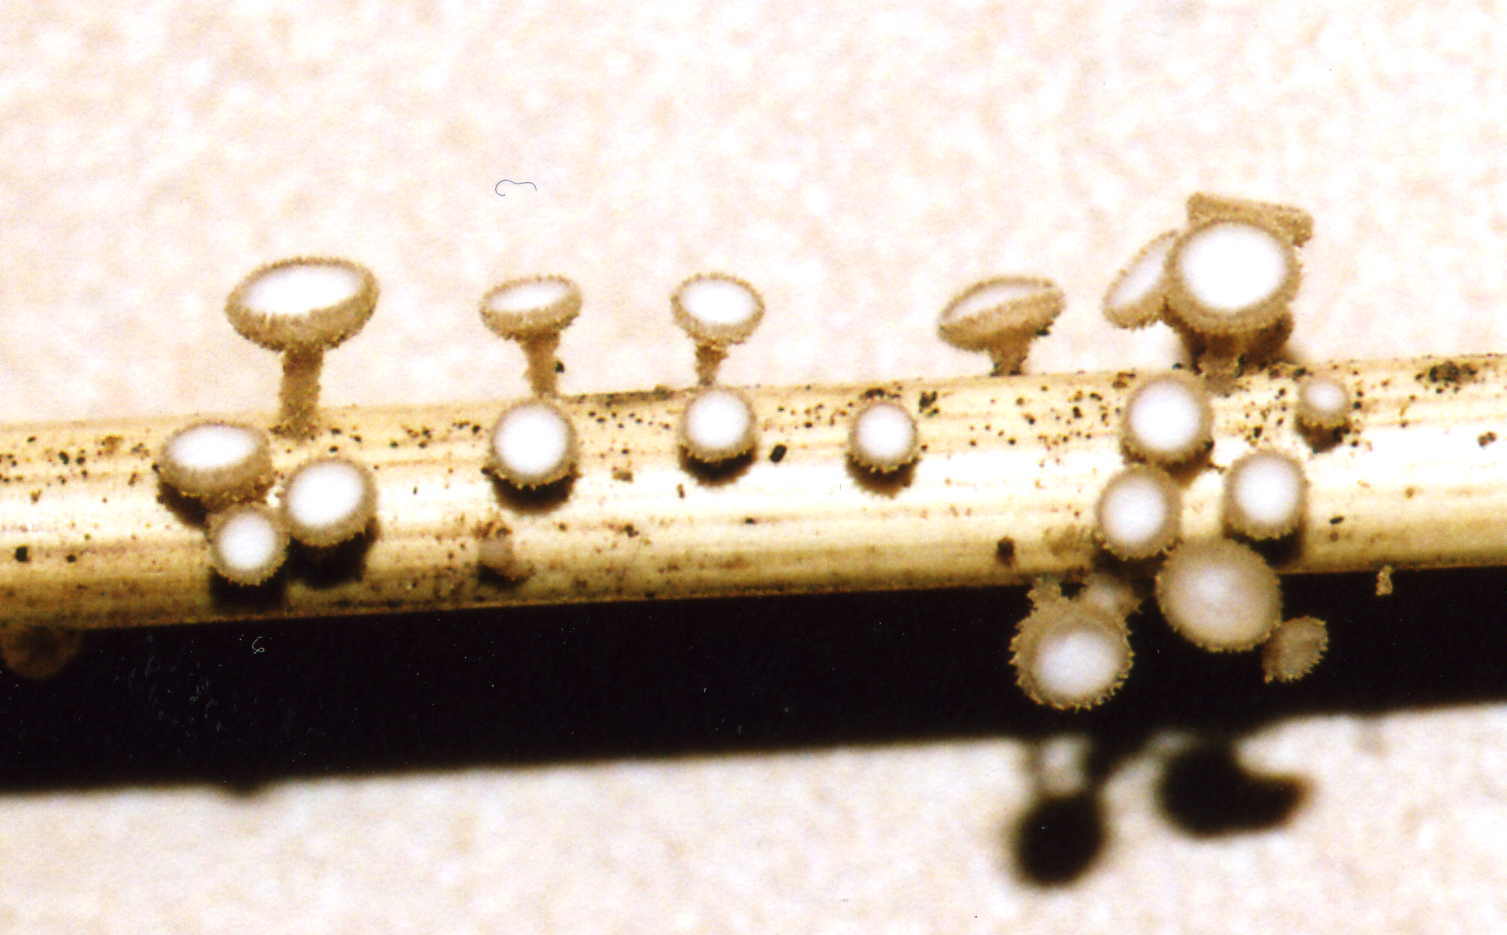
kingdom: Fungi
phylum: Ascomycota
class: Leotiomycetes
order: Helotiales
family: Lachnaceae
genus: Brunnipila
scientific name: Brunnipila palearum
